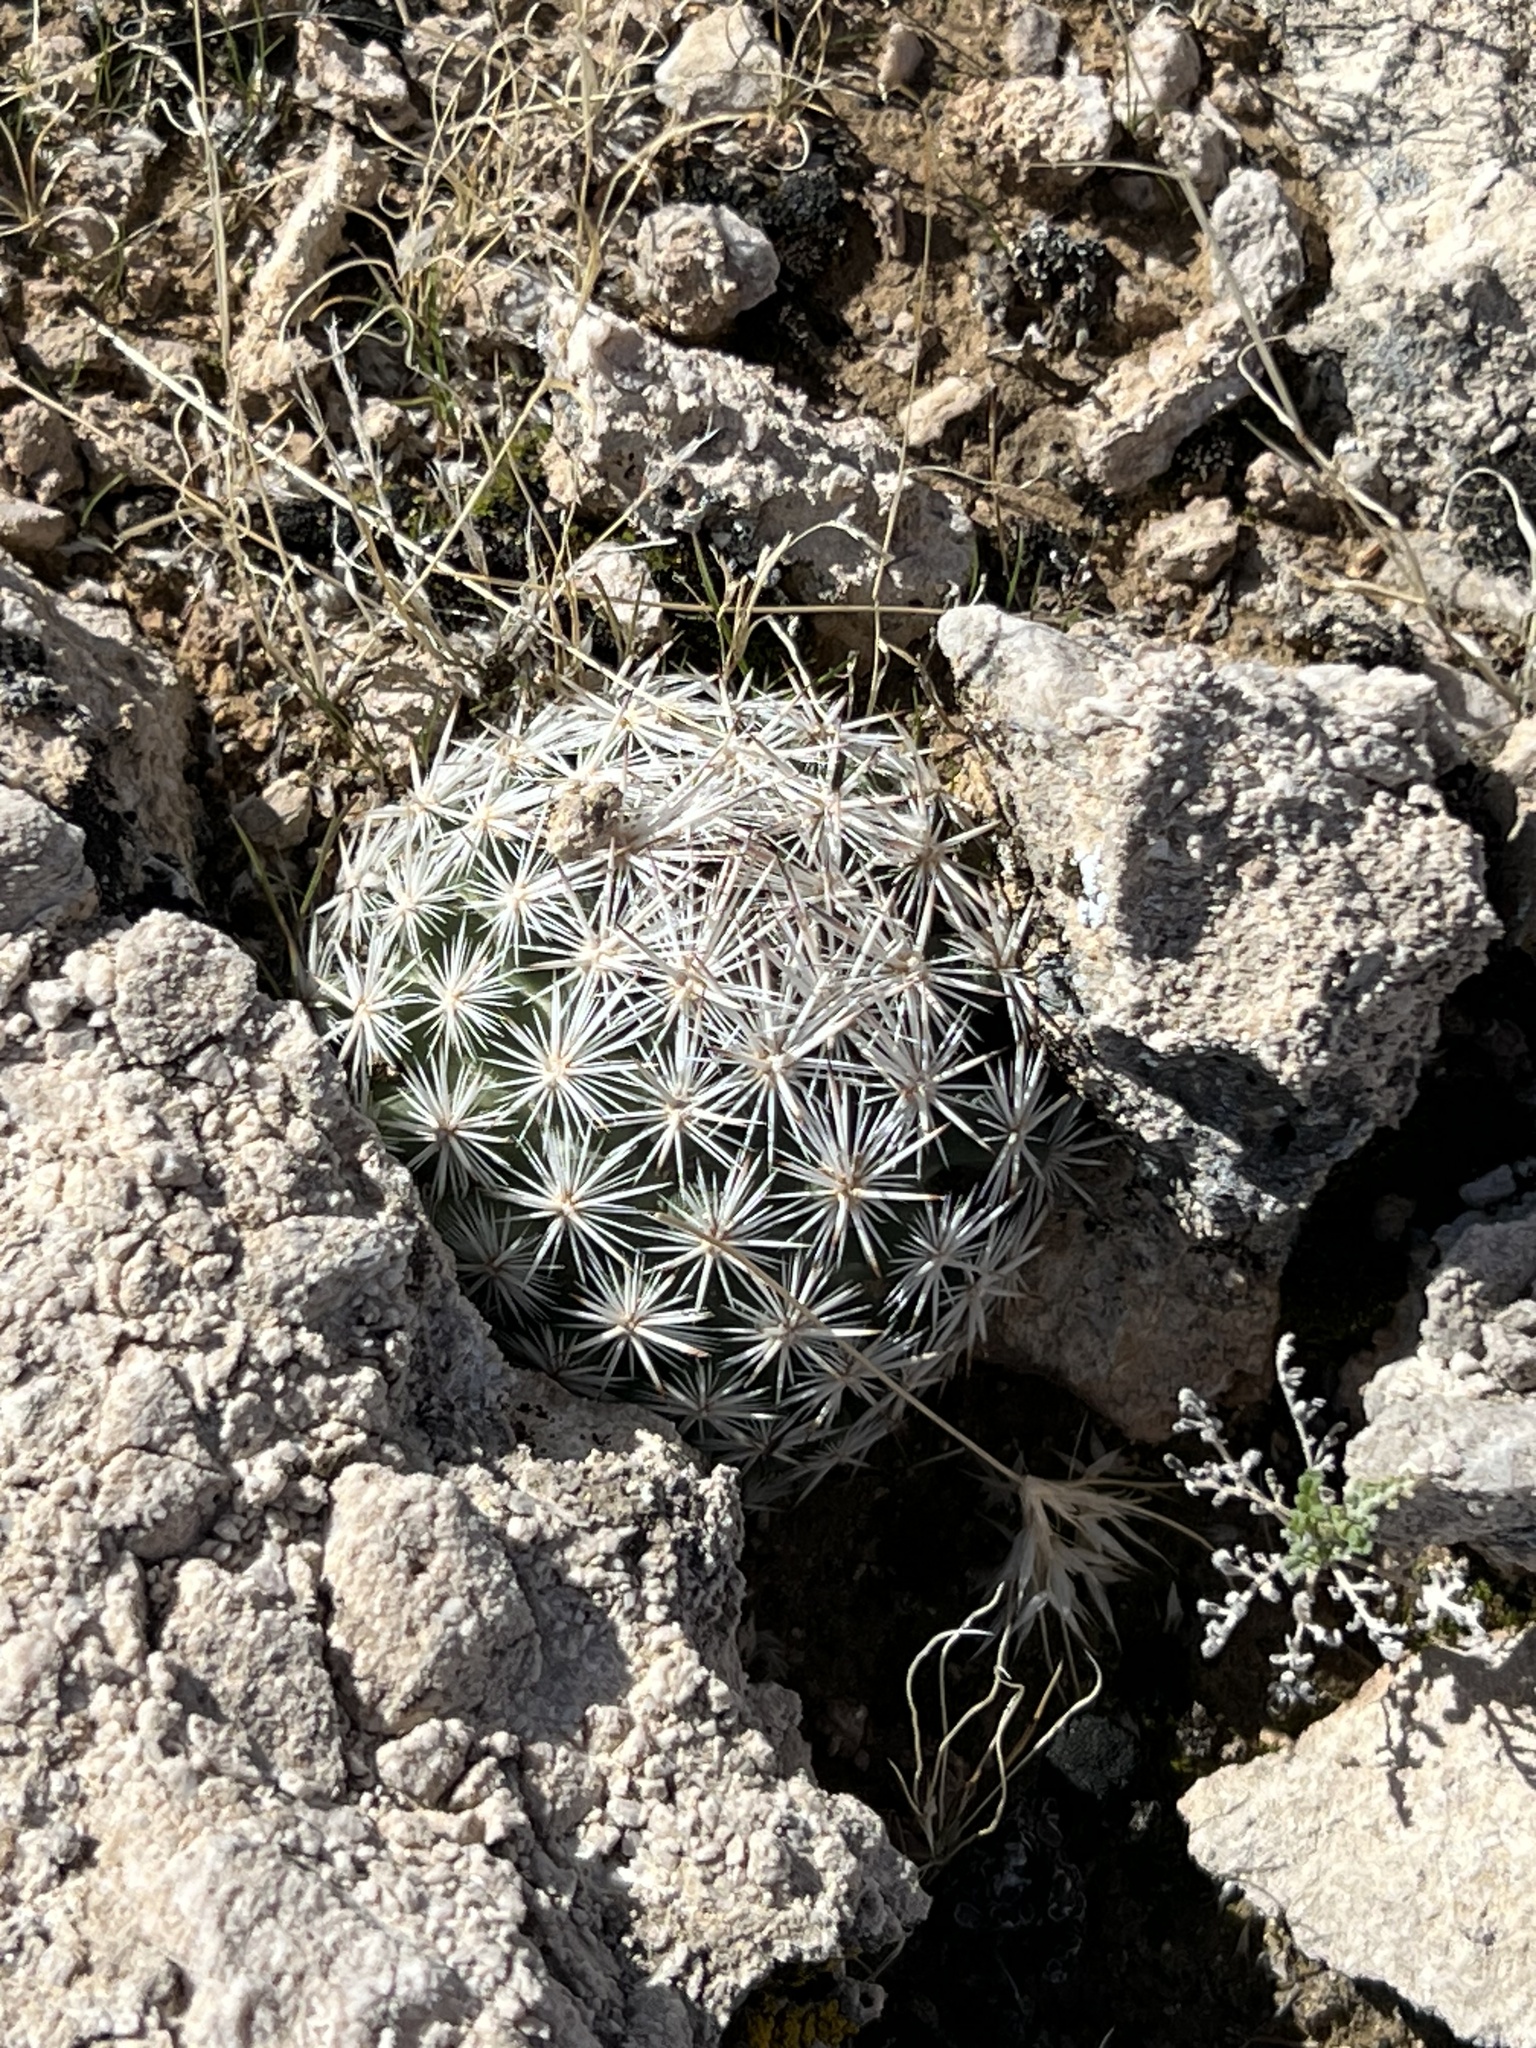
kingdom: Plantae
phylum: Tracheophyta
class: Magnoliopsida
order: Caryophyllales
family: Cactaceae
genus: Pelecyphora
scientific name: Pelecyphora dasyacantha
